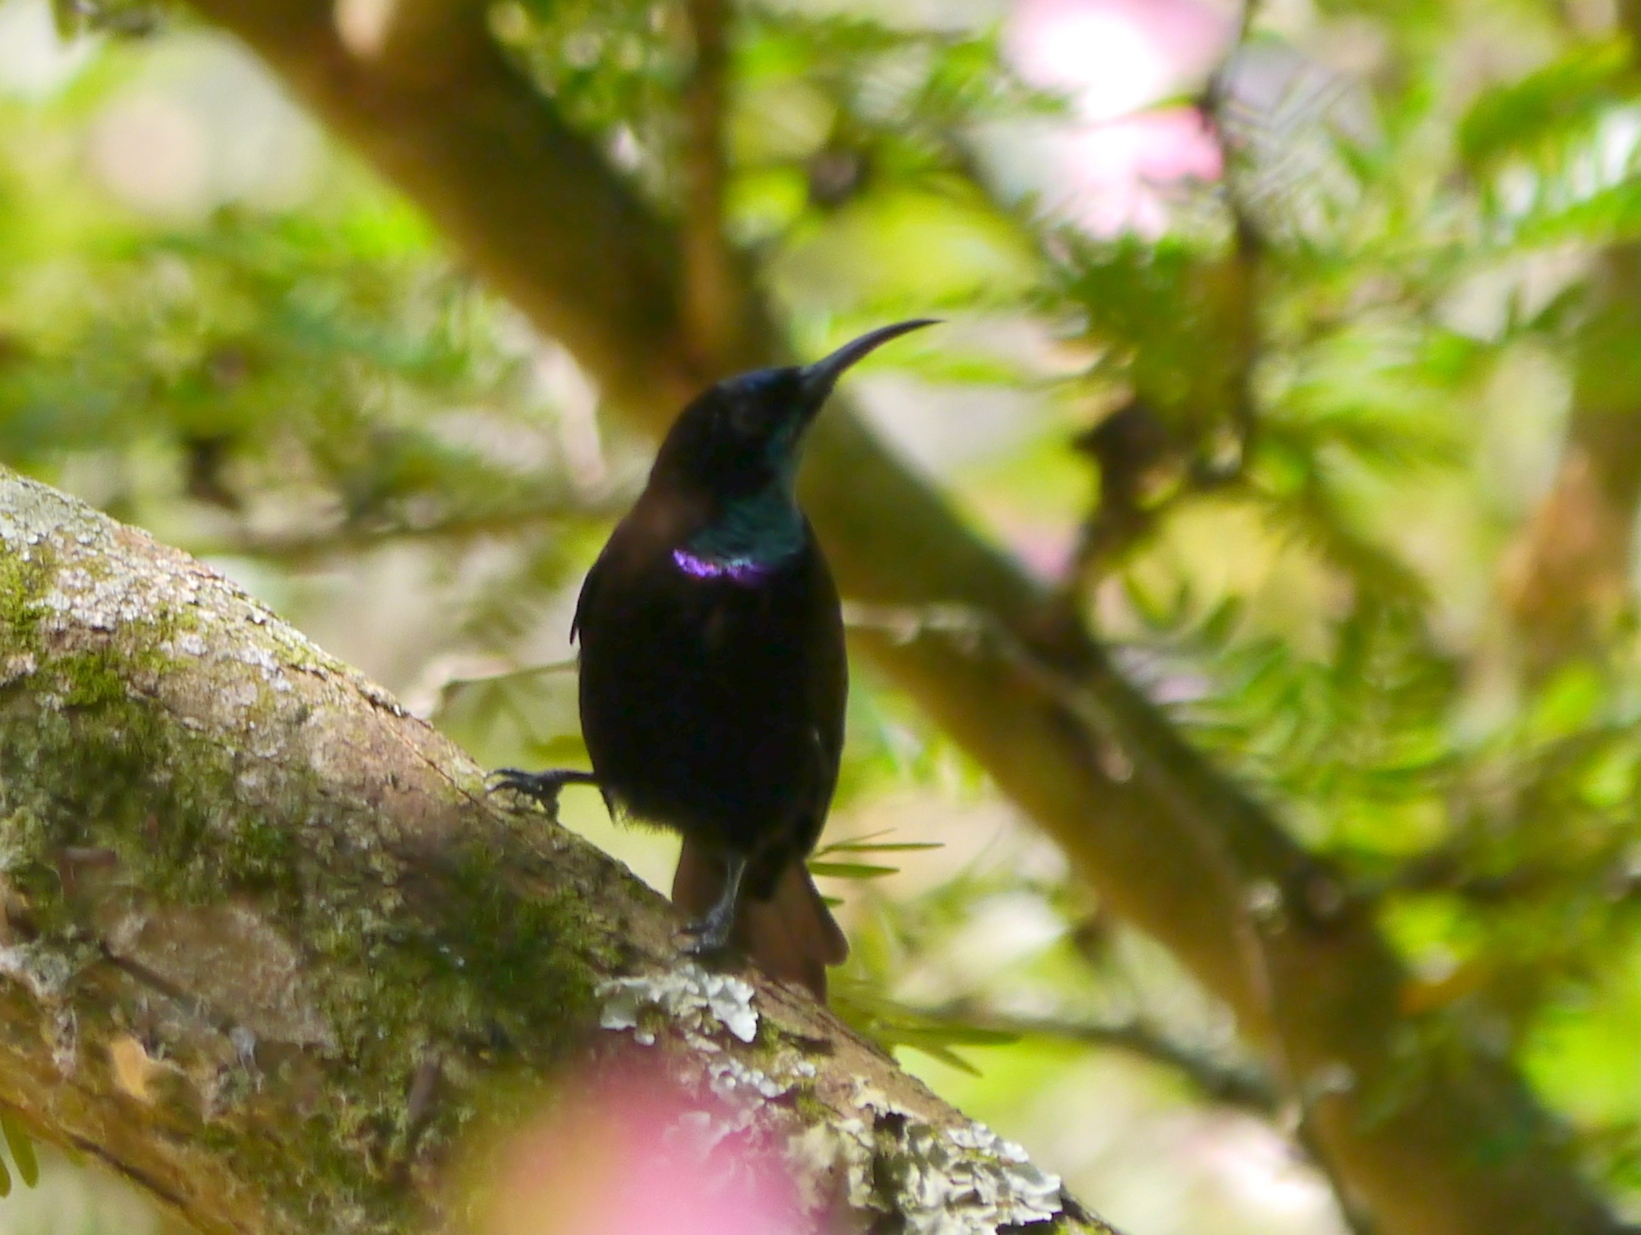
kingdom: Animalia
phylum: Chordata
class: Aves
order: Passeriformes
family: Nectariniidae
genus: Chalcomitra
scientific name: Chalcomitra rubescens
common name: Green-throated sunbird
